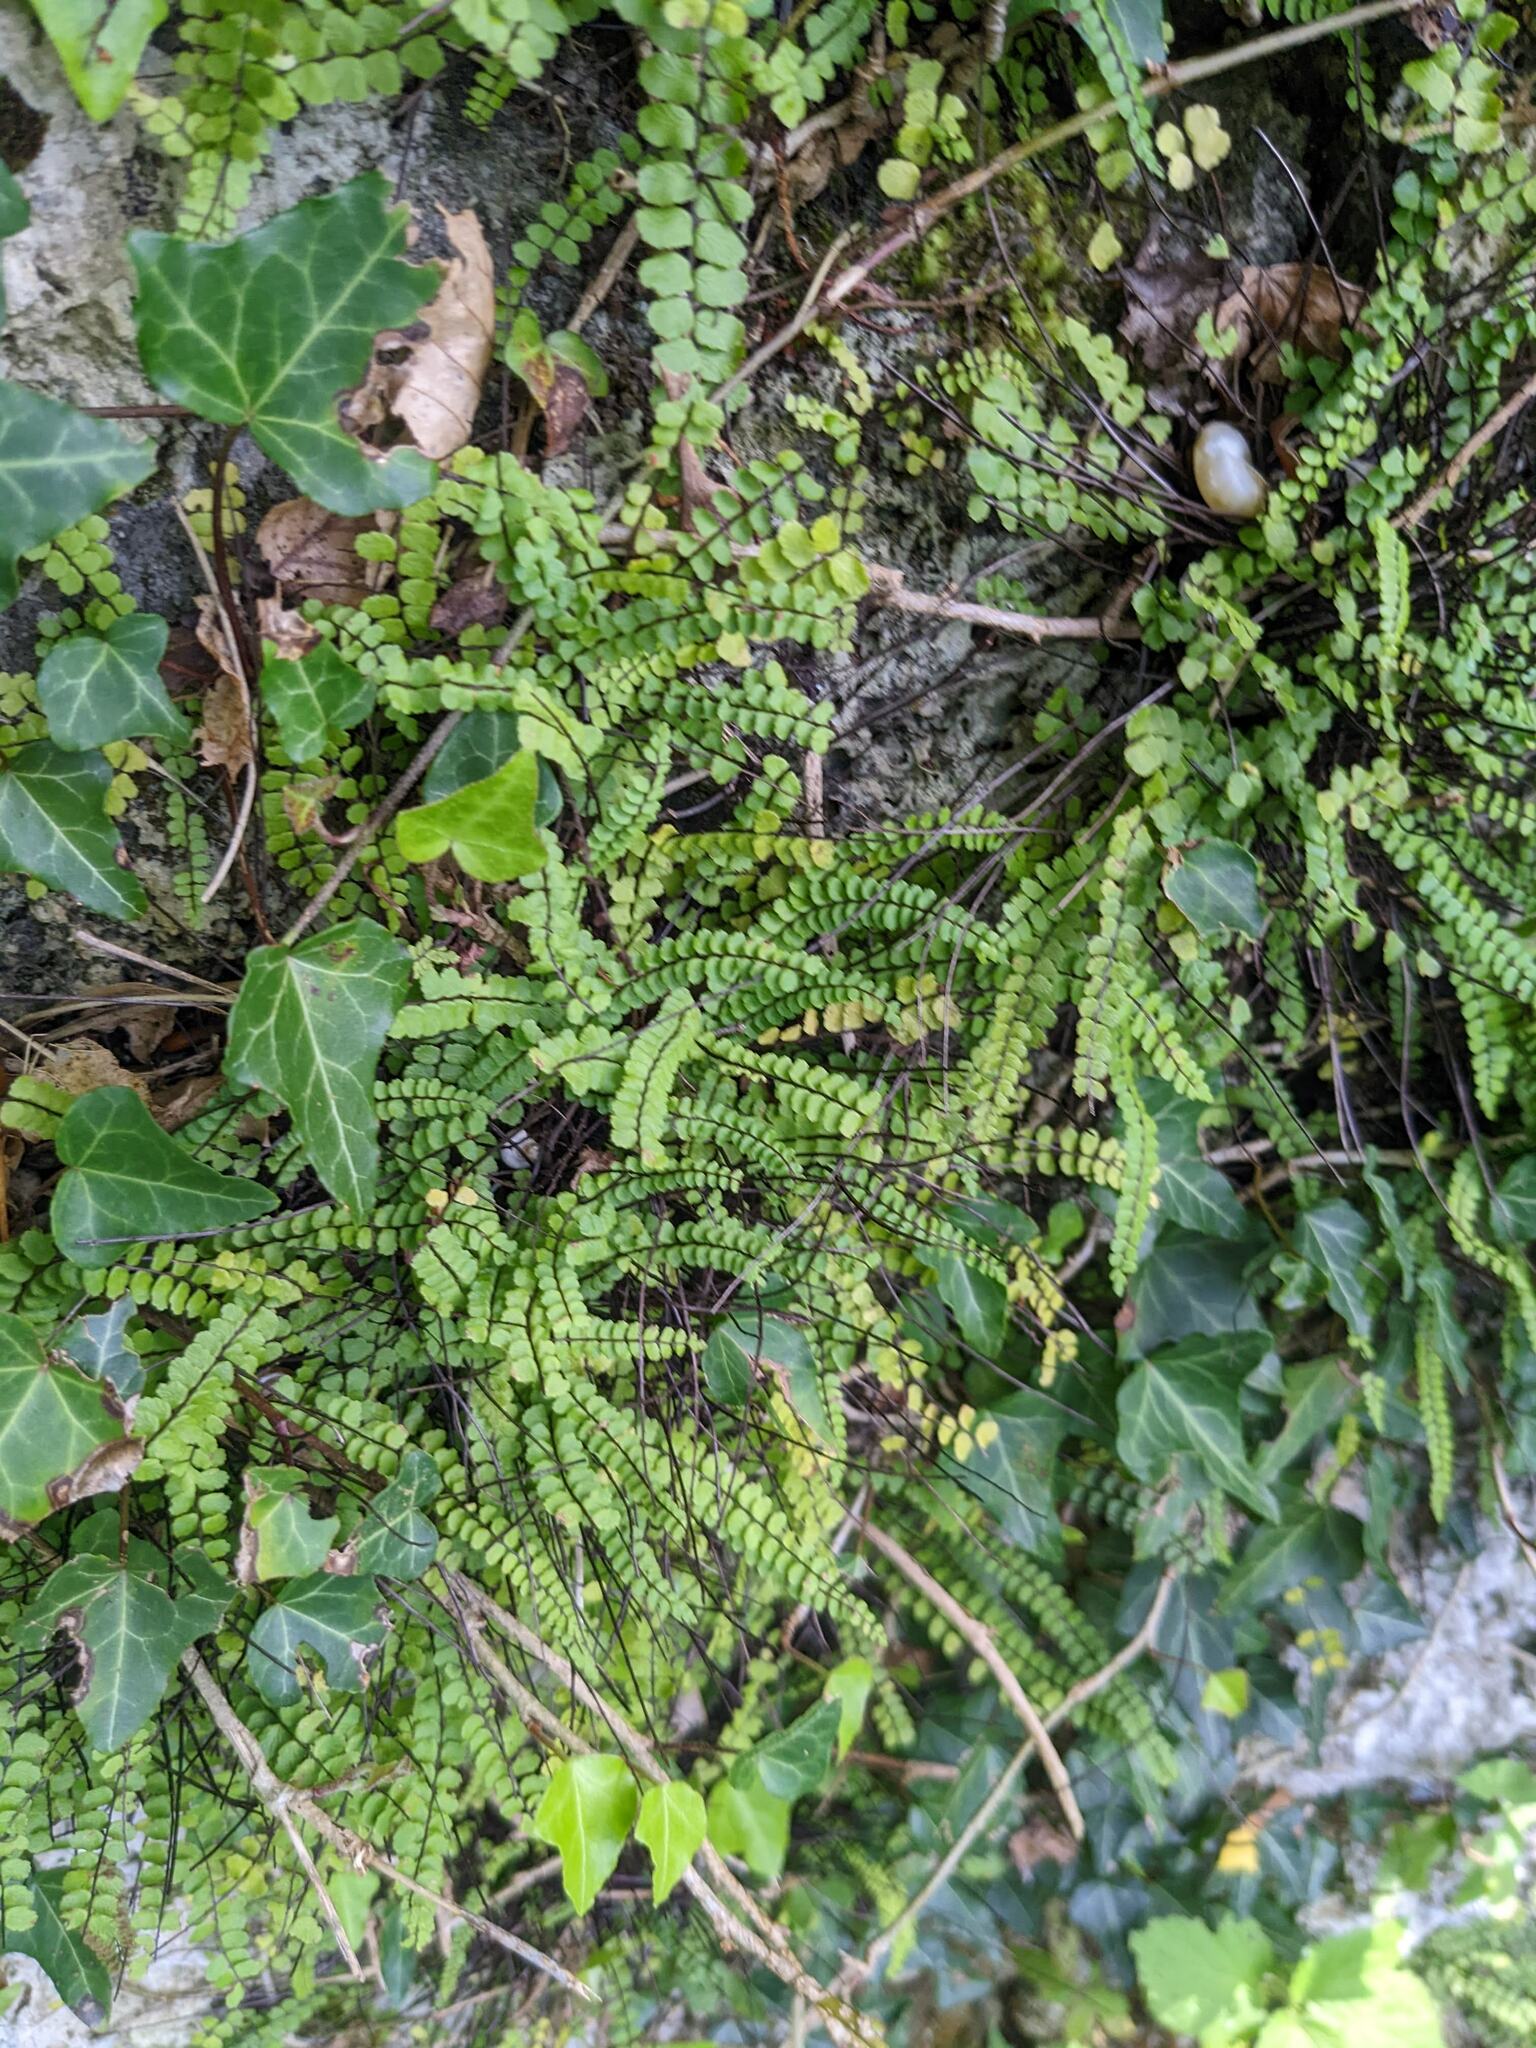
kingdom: Plantae
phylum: Tracheophyta
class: Polypodiopsida
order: Polypodiales
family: Aspleniaceae
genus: Asplenium
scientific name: Asplenium trichomanes
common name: Maidenhair spleenwort
